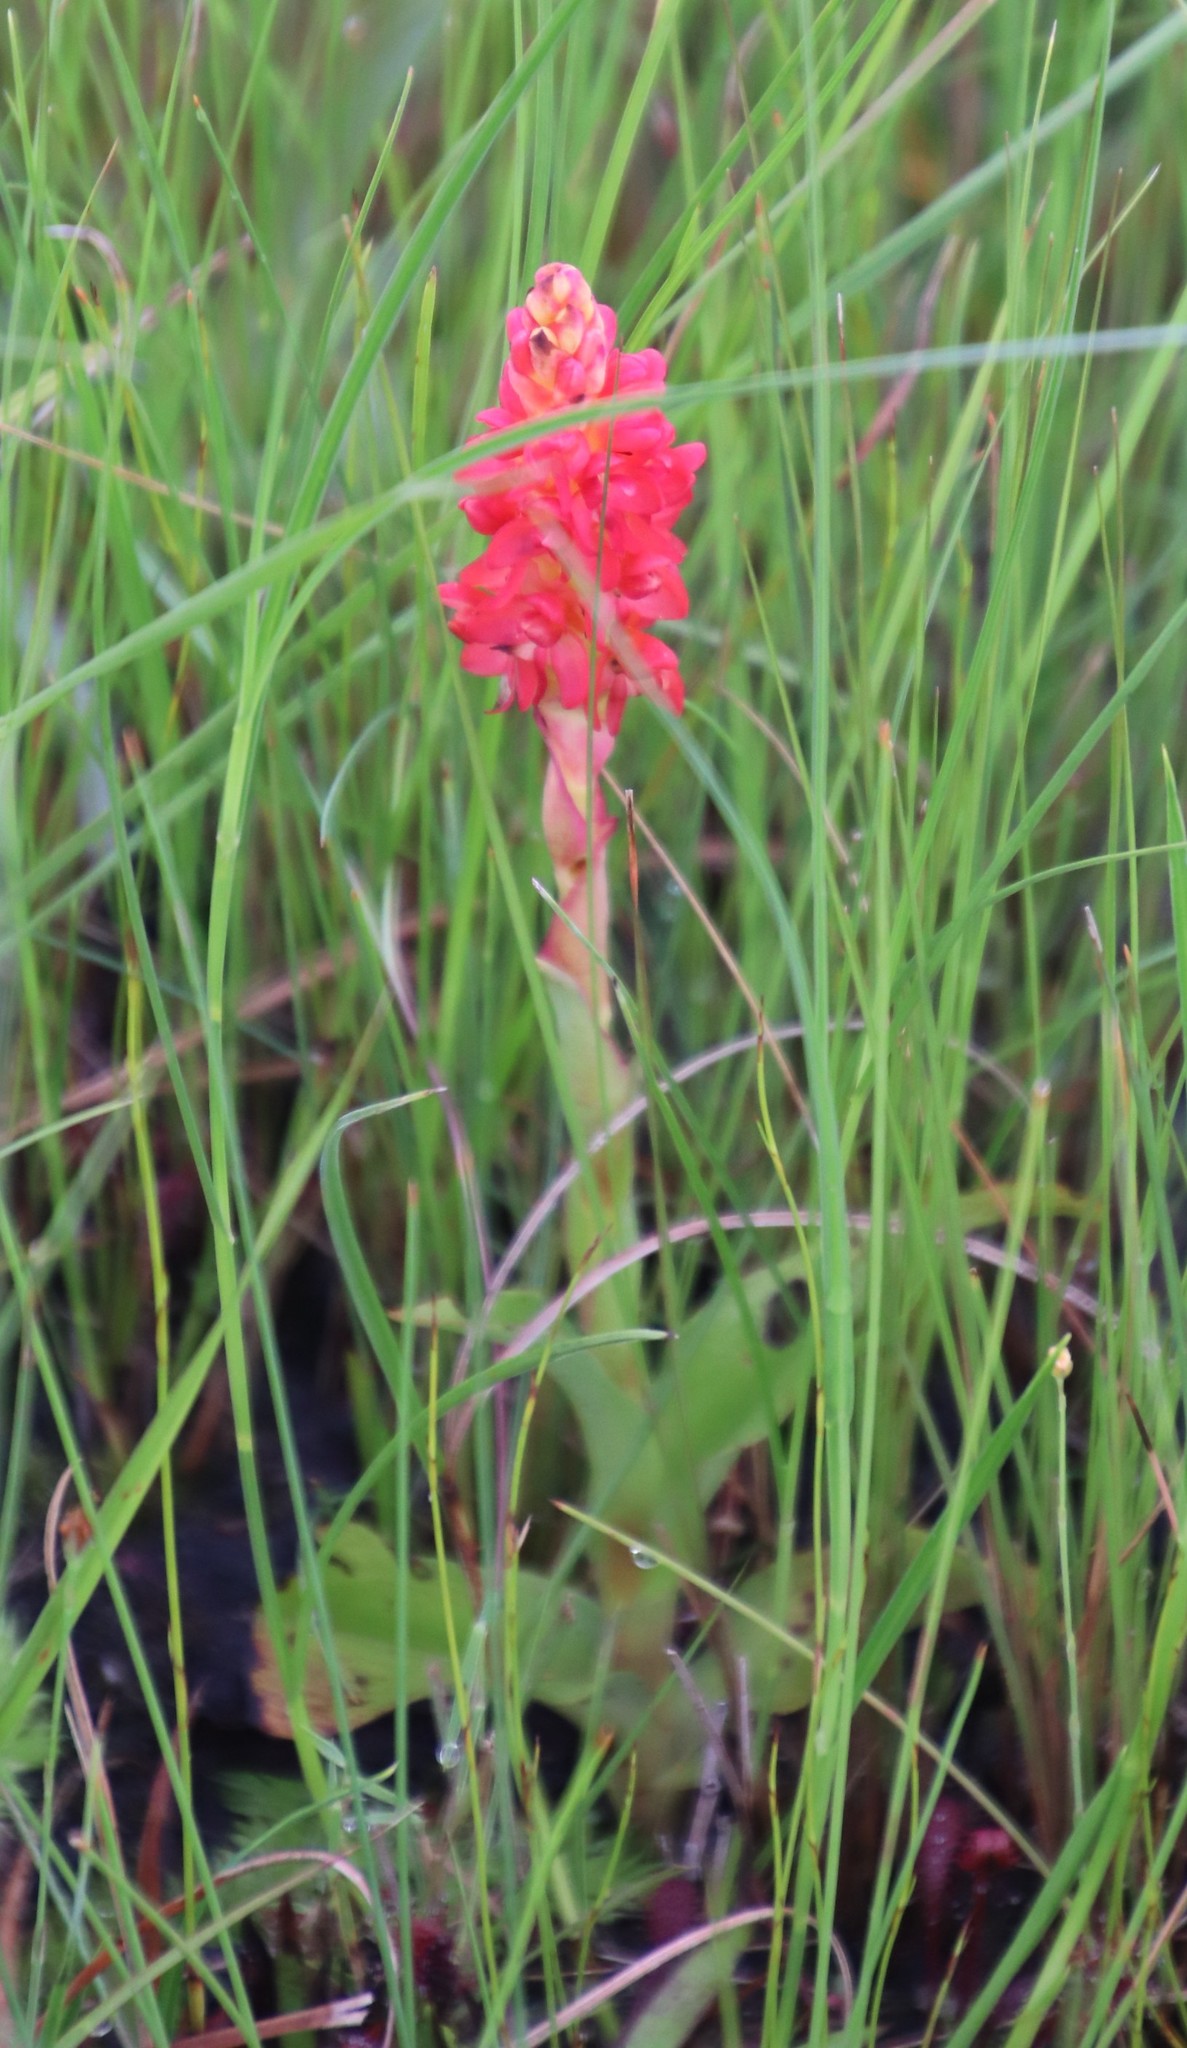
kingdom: Plantae
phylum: Tracheophyta
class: Liliopsida
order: Asparagales
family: Orchidaceae
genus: Disa
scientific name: Disa polygonoides
